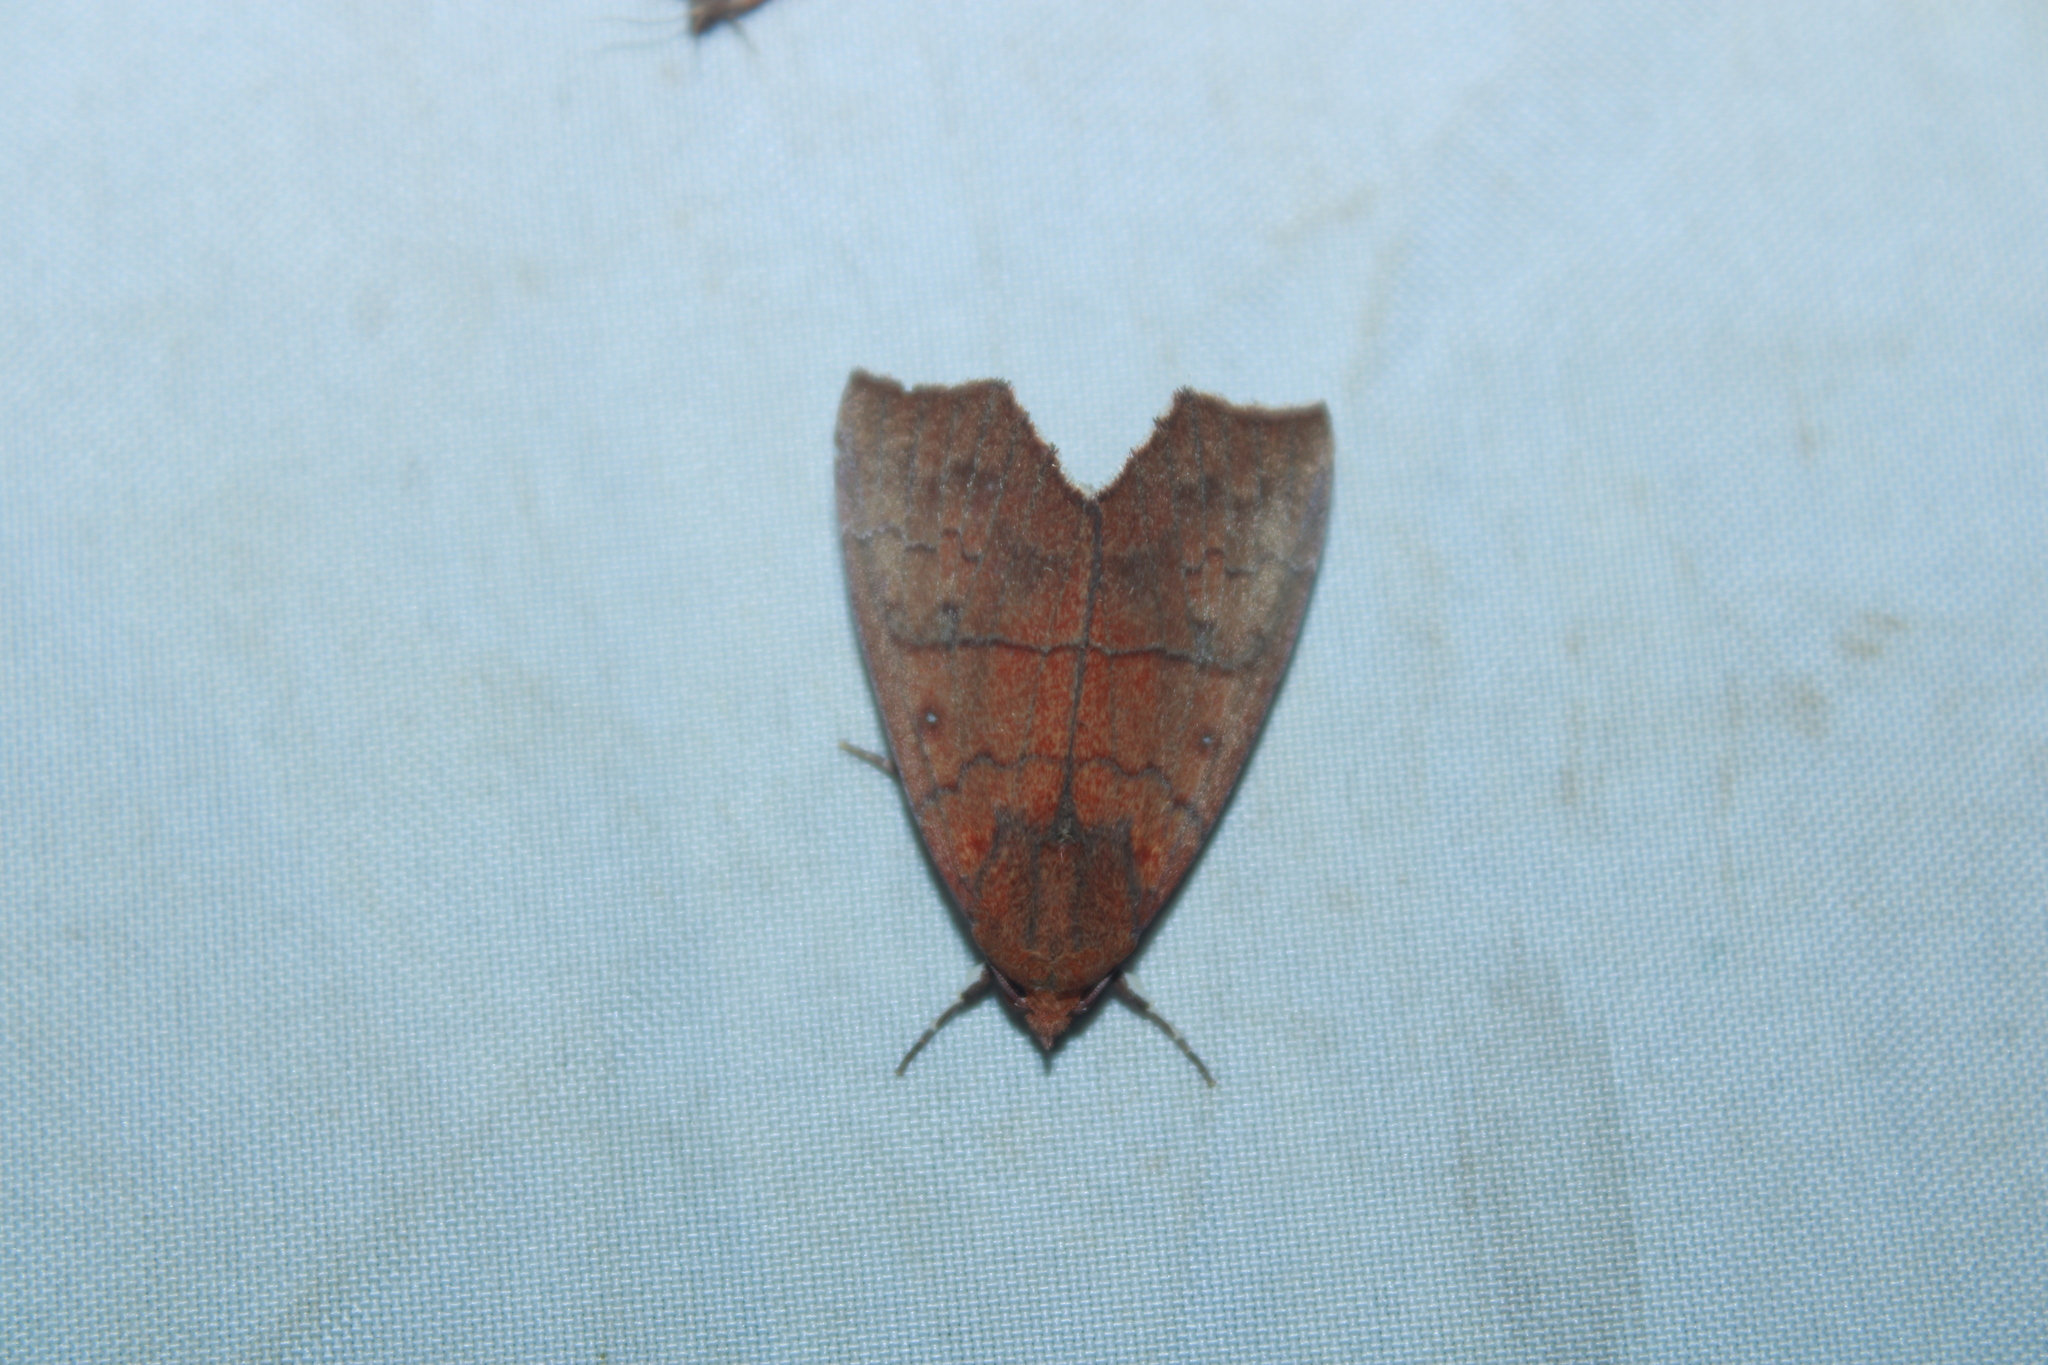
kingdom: Animalia
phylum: Arthropoda
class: Insecta
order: Lepidoptera
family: Erebidae
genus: Rusicada
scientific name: Rusicada privata
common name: Hibiscus leaf caterpillar moth
